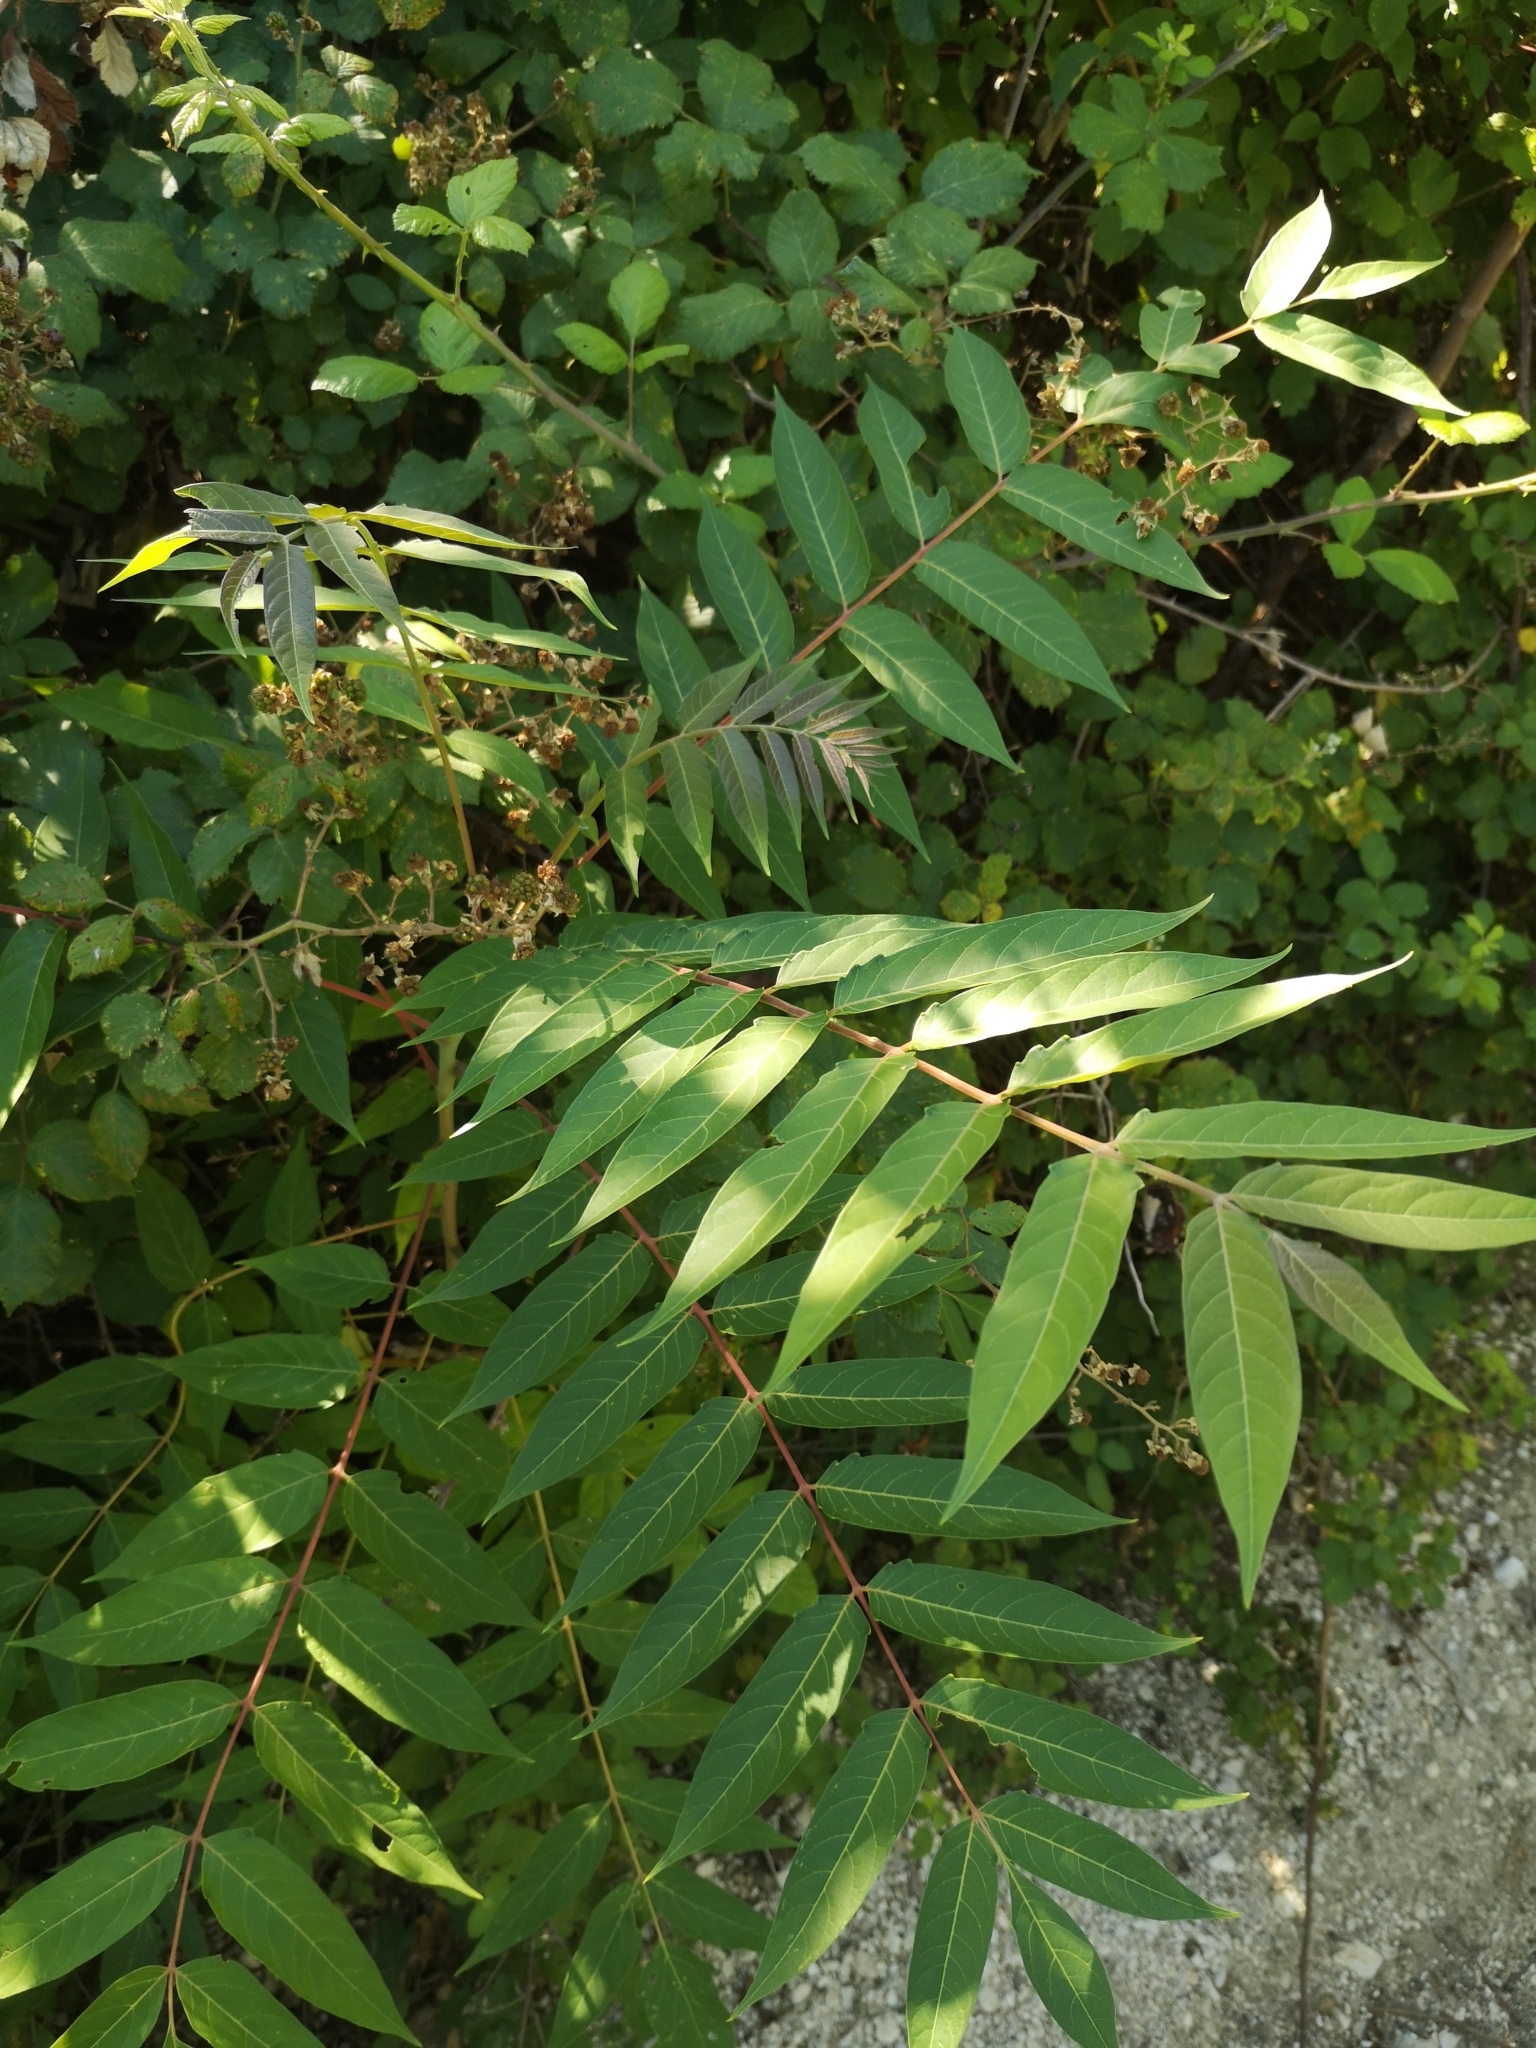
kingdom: Plantae
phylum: Tracheophyta
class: Magnoliopsida
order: Sapindales
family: Simaroubaceae
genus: Ailanthus
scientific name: Ailanthus altissima
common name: Tree-of-heaven
